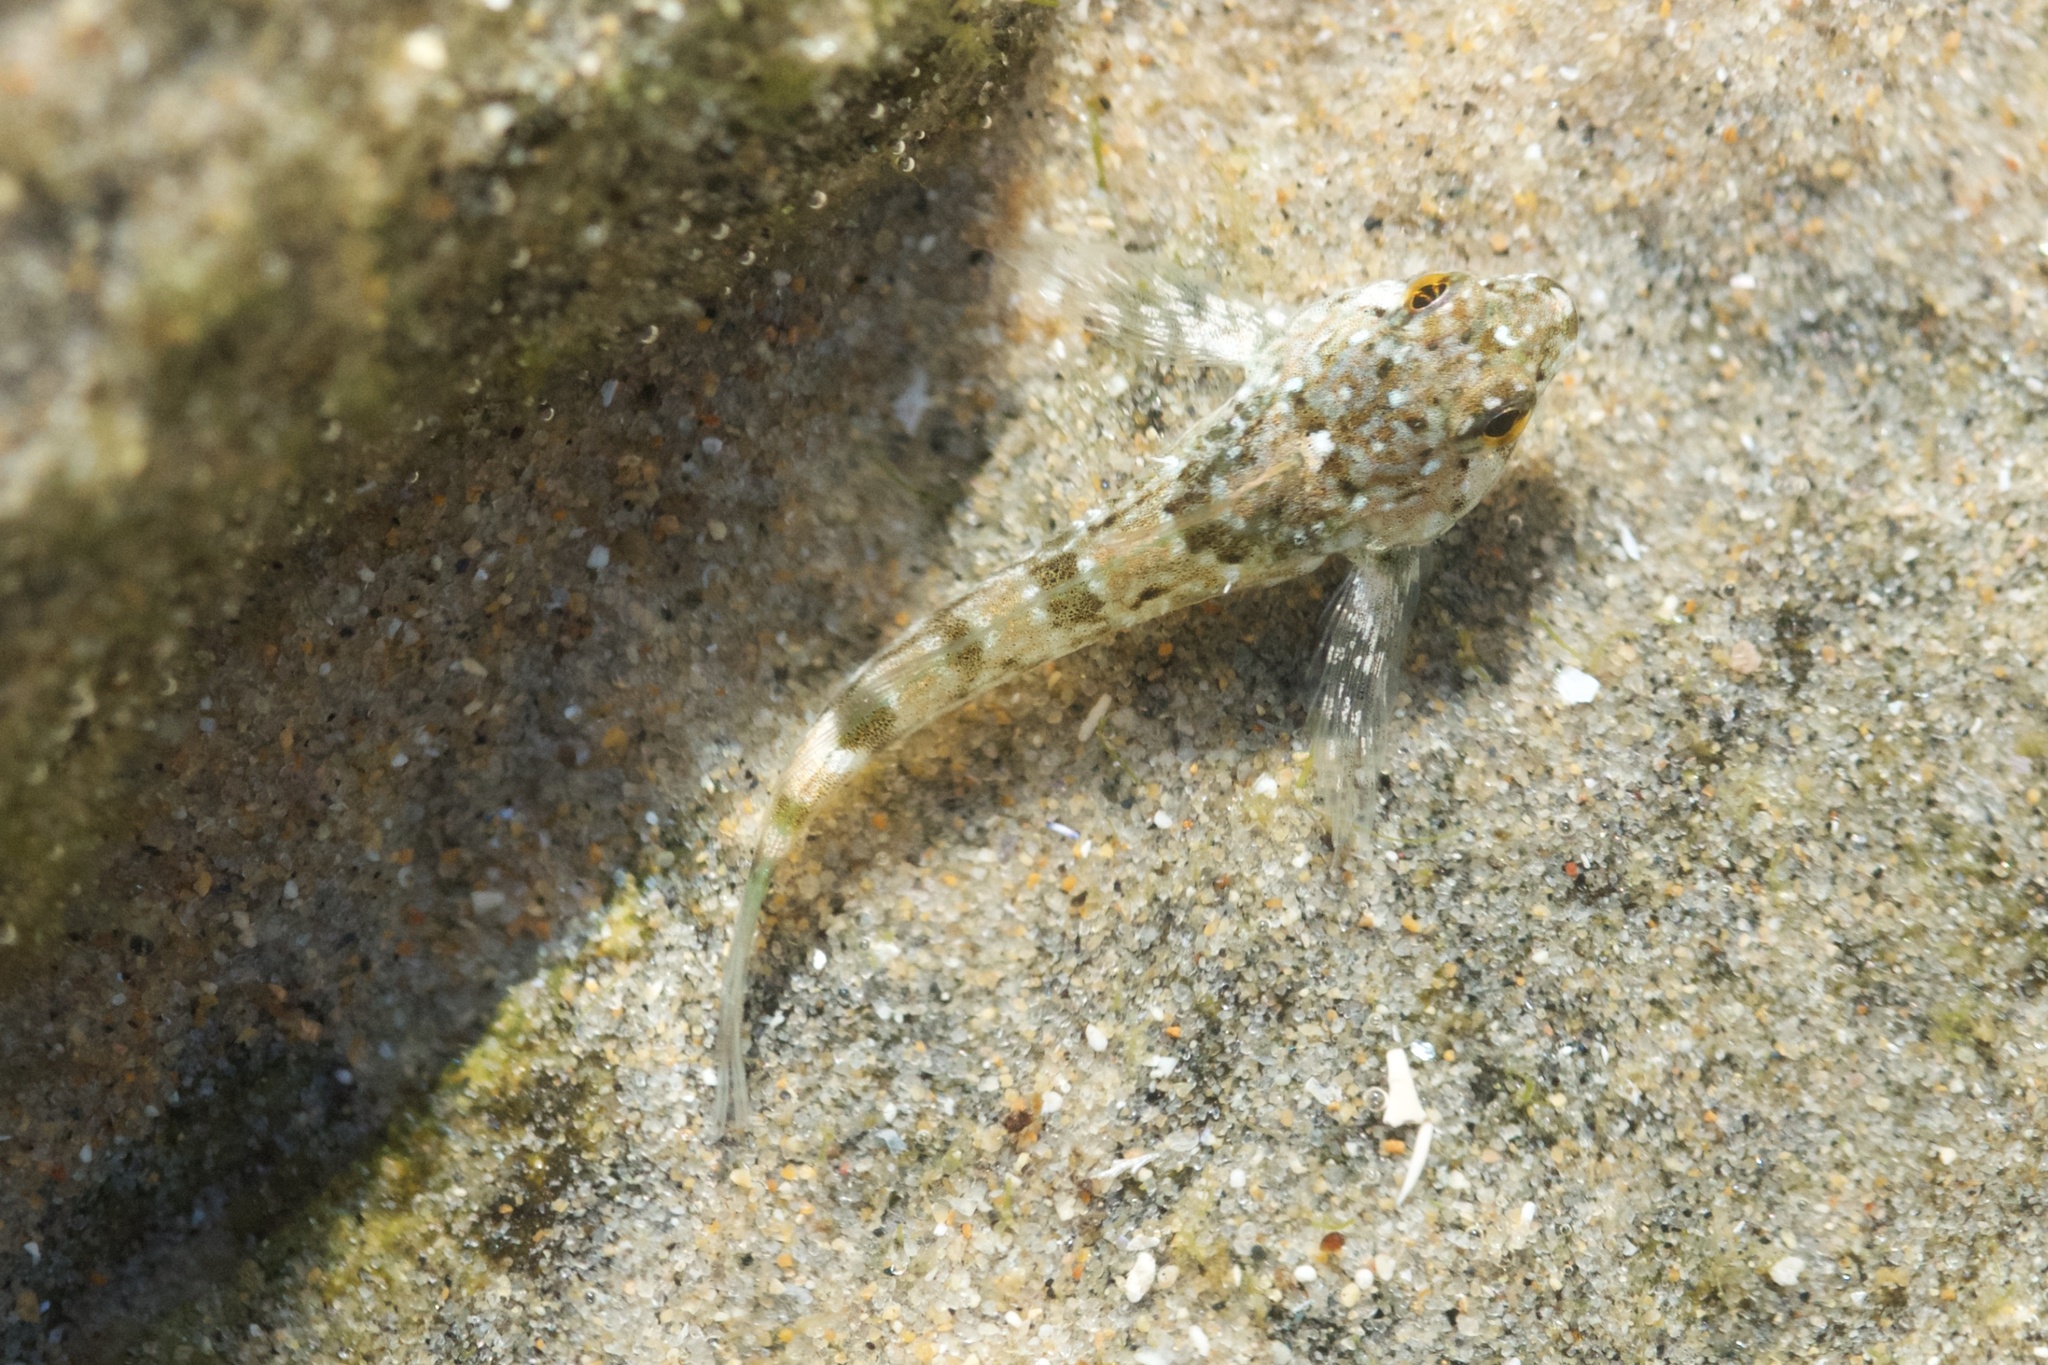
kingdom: Animalia
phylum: Chordata
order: Scorpaeniformes
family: Cottidae
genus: Clinocottus
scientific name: Clinocottus analis
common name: Woolly sculpin
